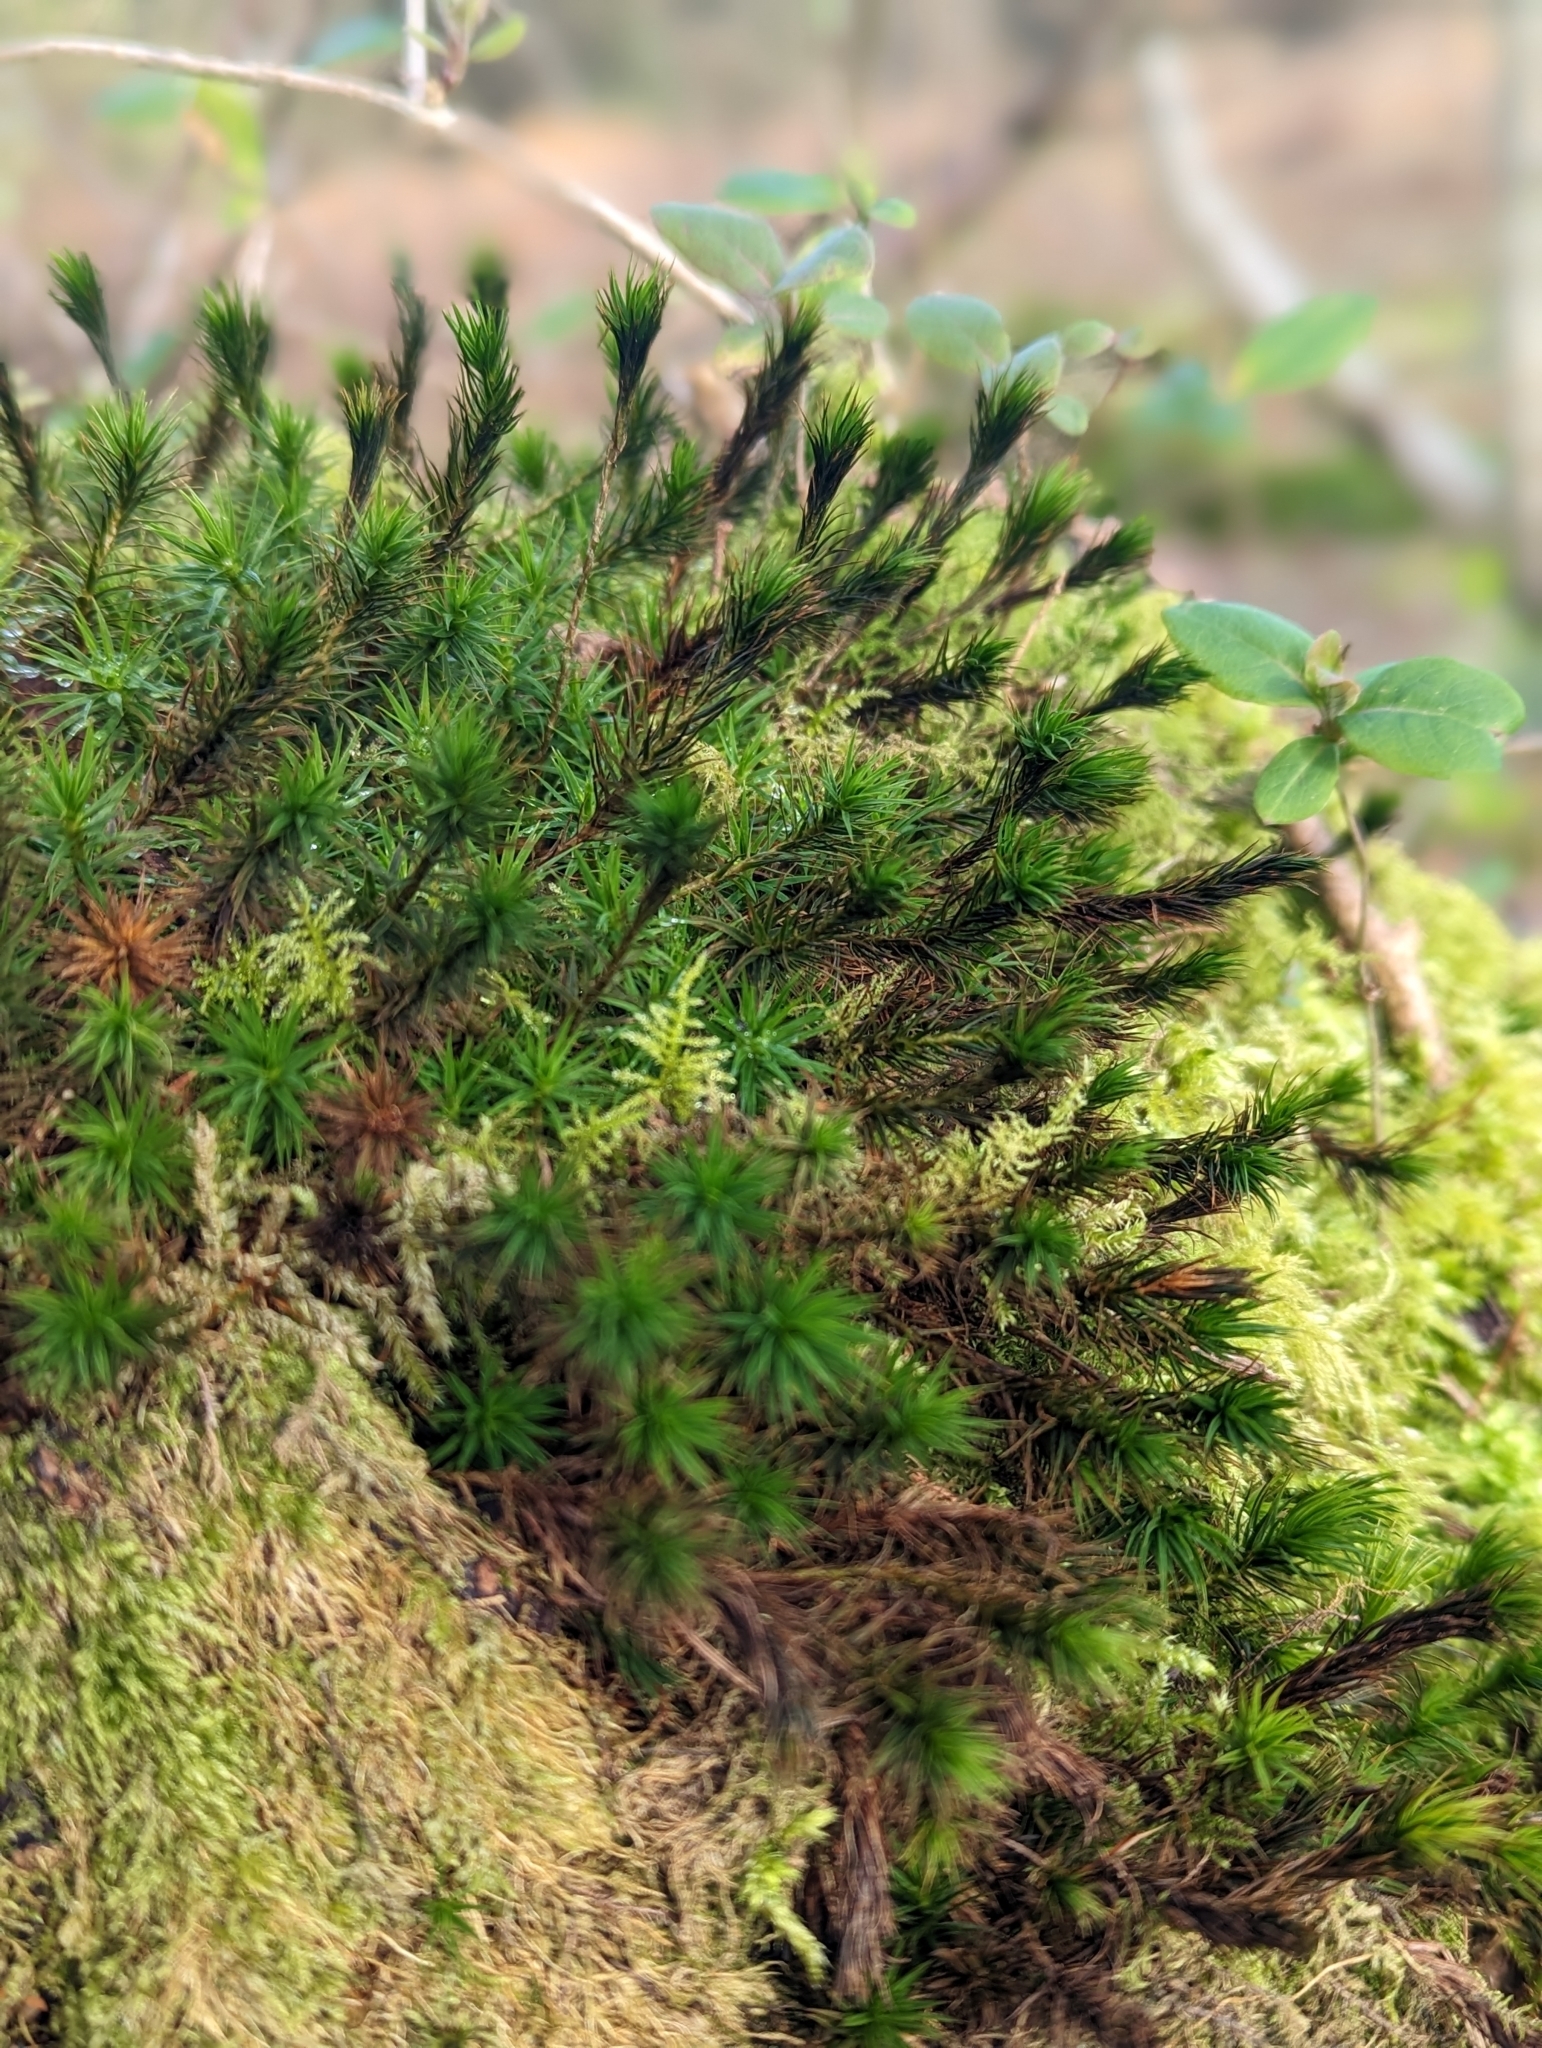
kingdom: Plantae
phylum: Bryophyta
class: Polytrichopsida
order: Polytrichales
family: Polytrichaceae
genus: Polytrichum
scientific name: Polytrichum formosum
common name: Bank haircap moss
